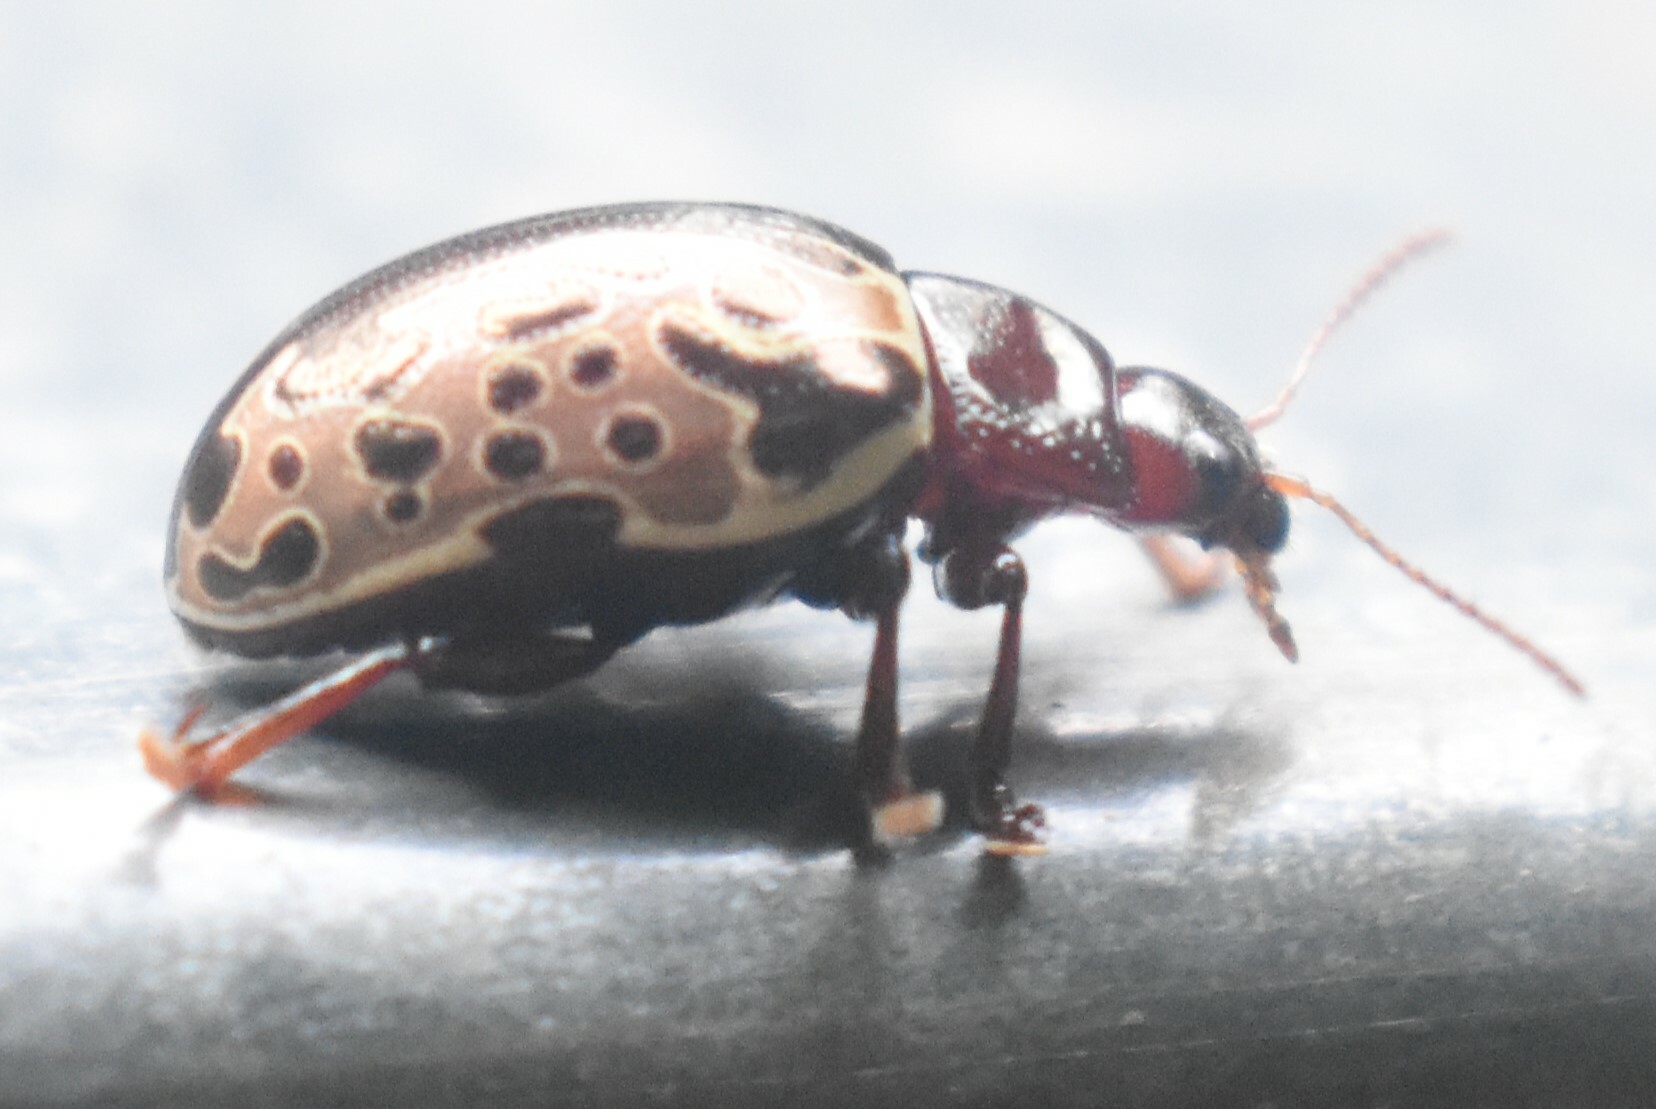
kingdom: Animalia
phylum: Arthropoda
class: Insecta
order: Coleoptera
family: Chrysomelidae
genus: Calligrapha
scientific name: Calligrapha argus
